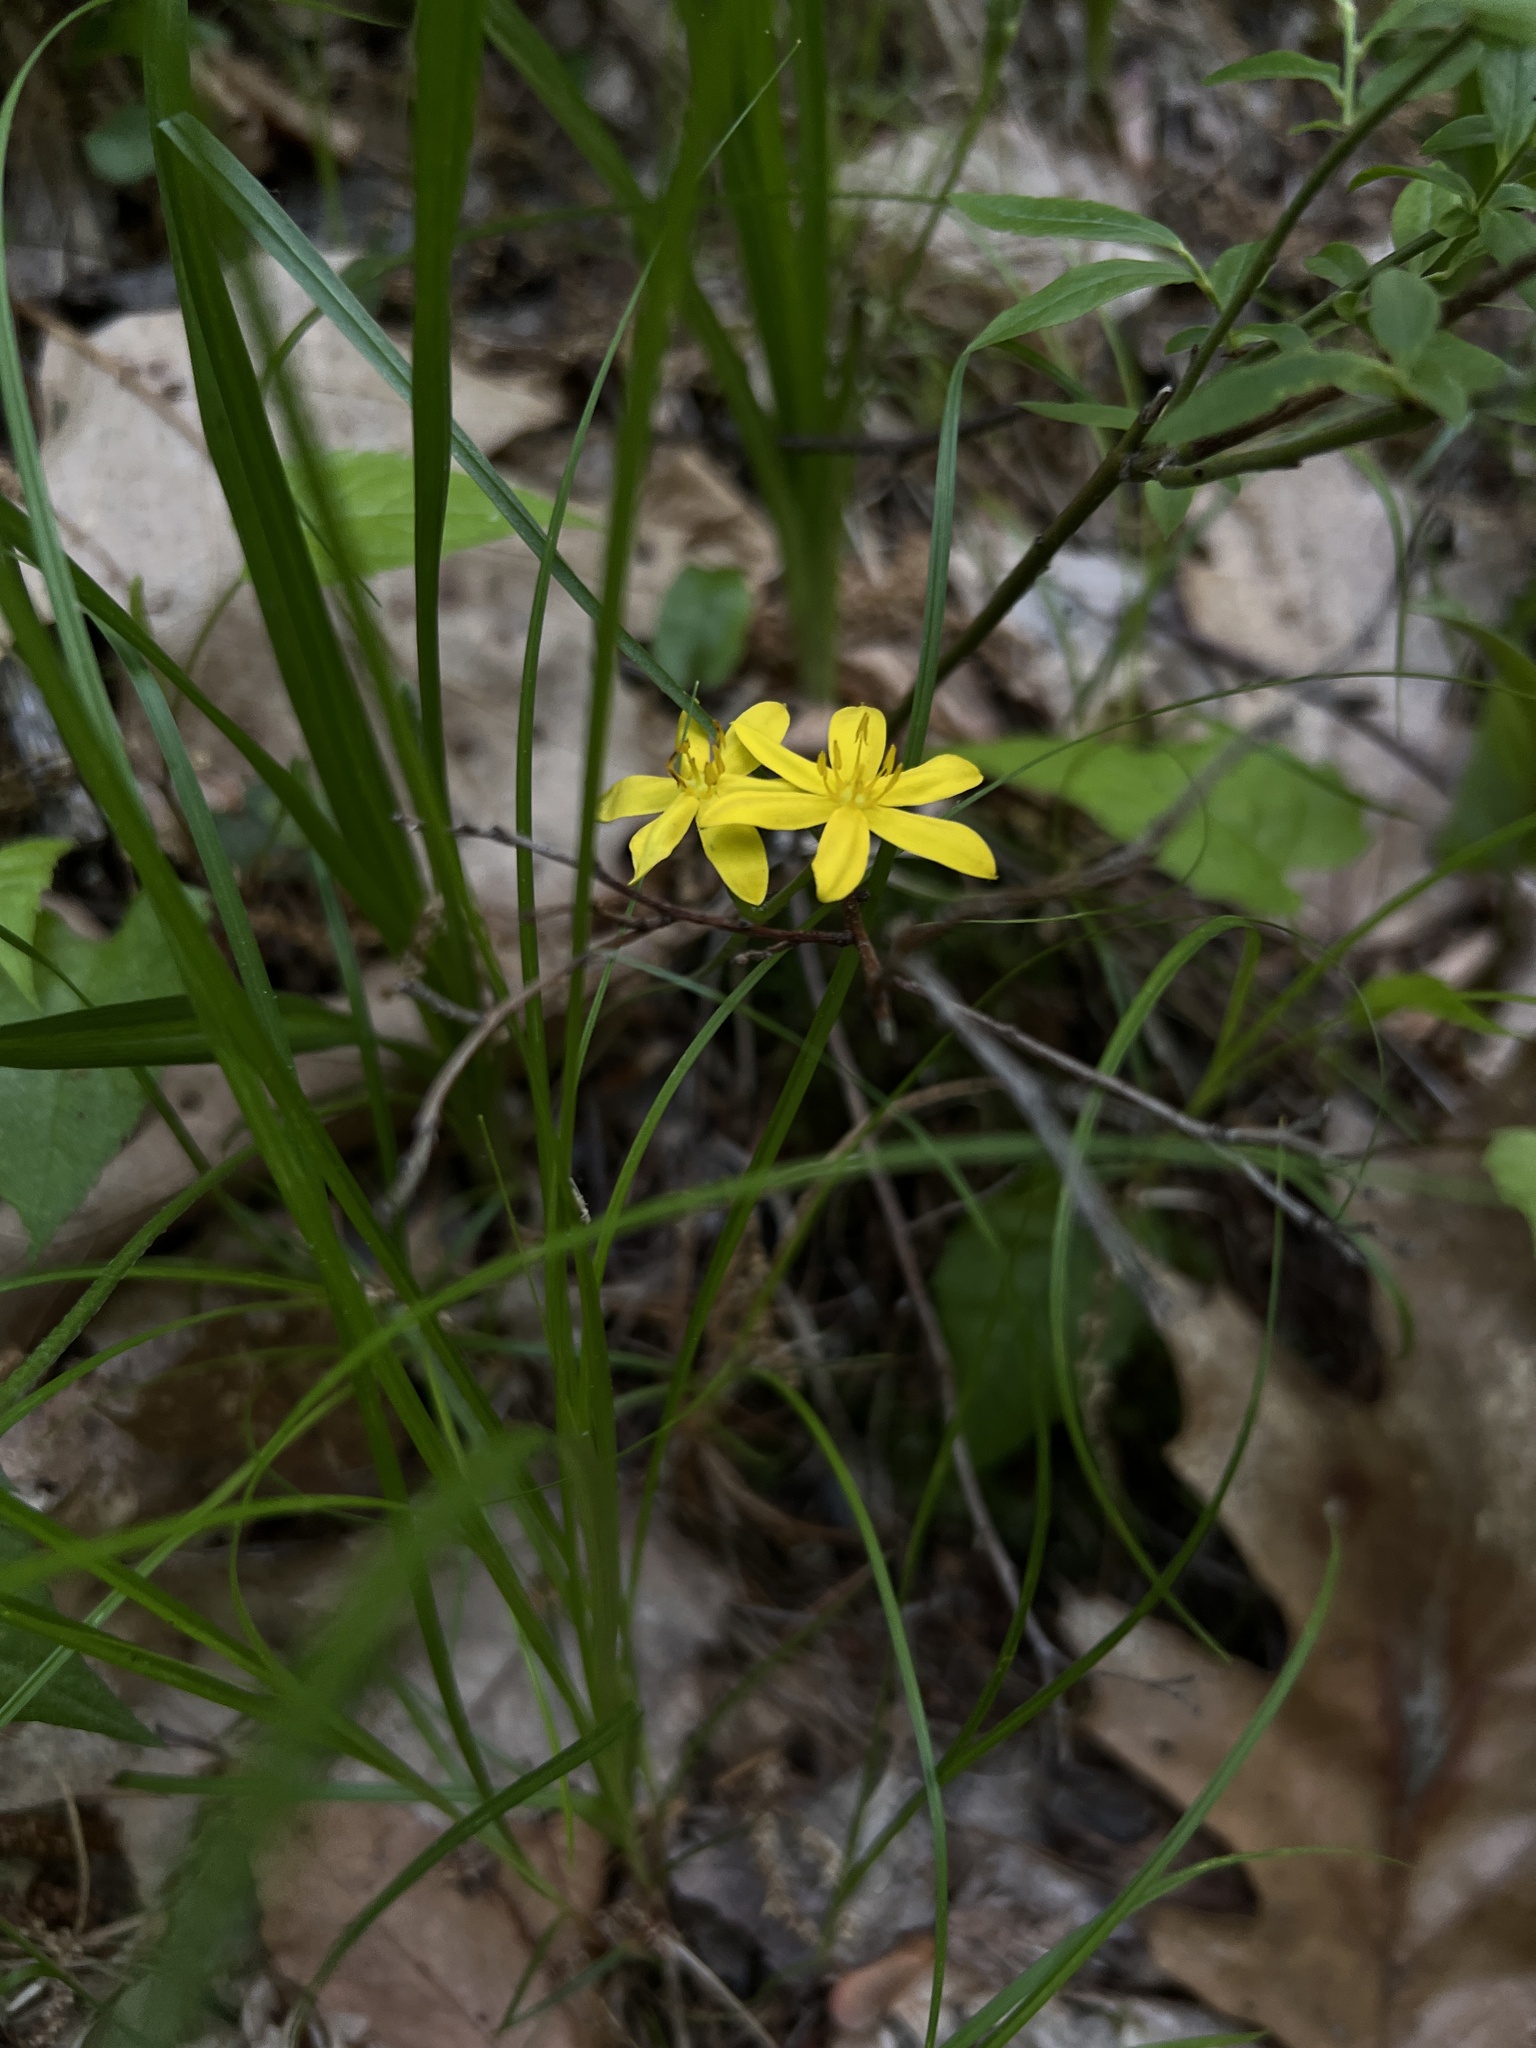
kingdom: Plantae
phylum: Tracheophyta
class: Liliopsida
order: Asparagales
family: Hypoxidaceae
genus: Hypoxis
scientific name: Hypoxis hirsuta
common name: Common goldstar
